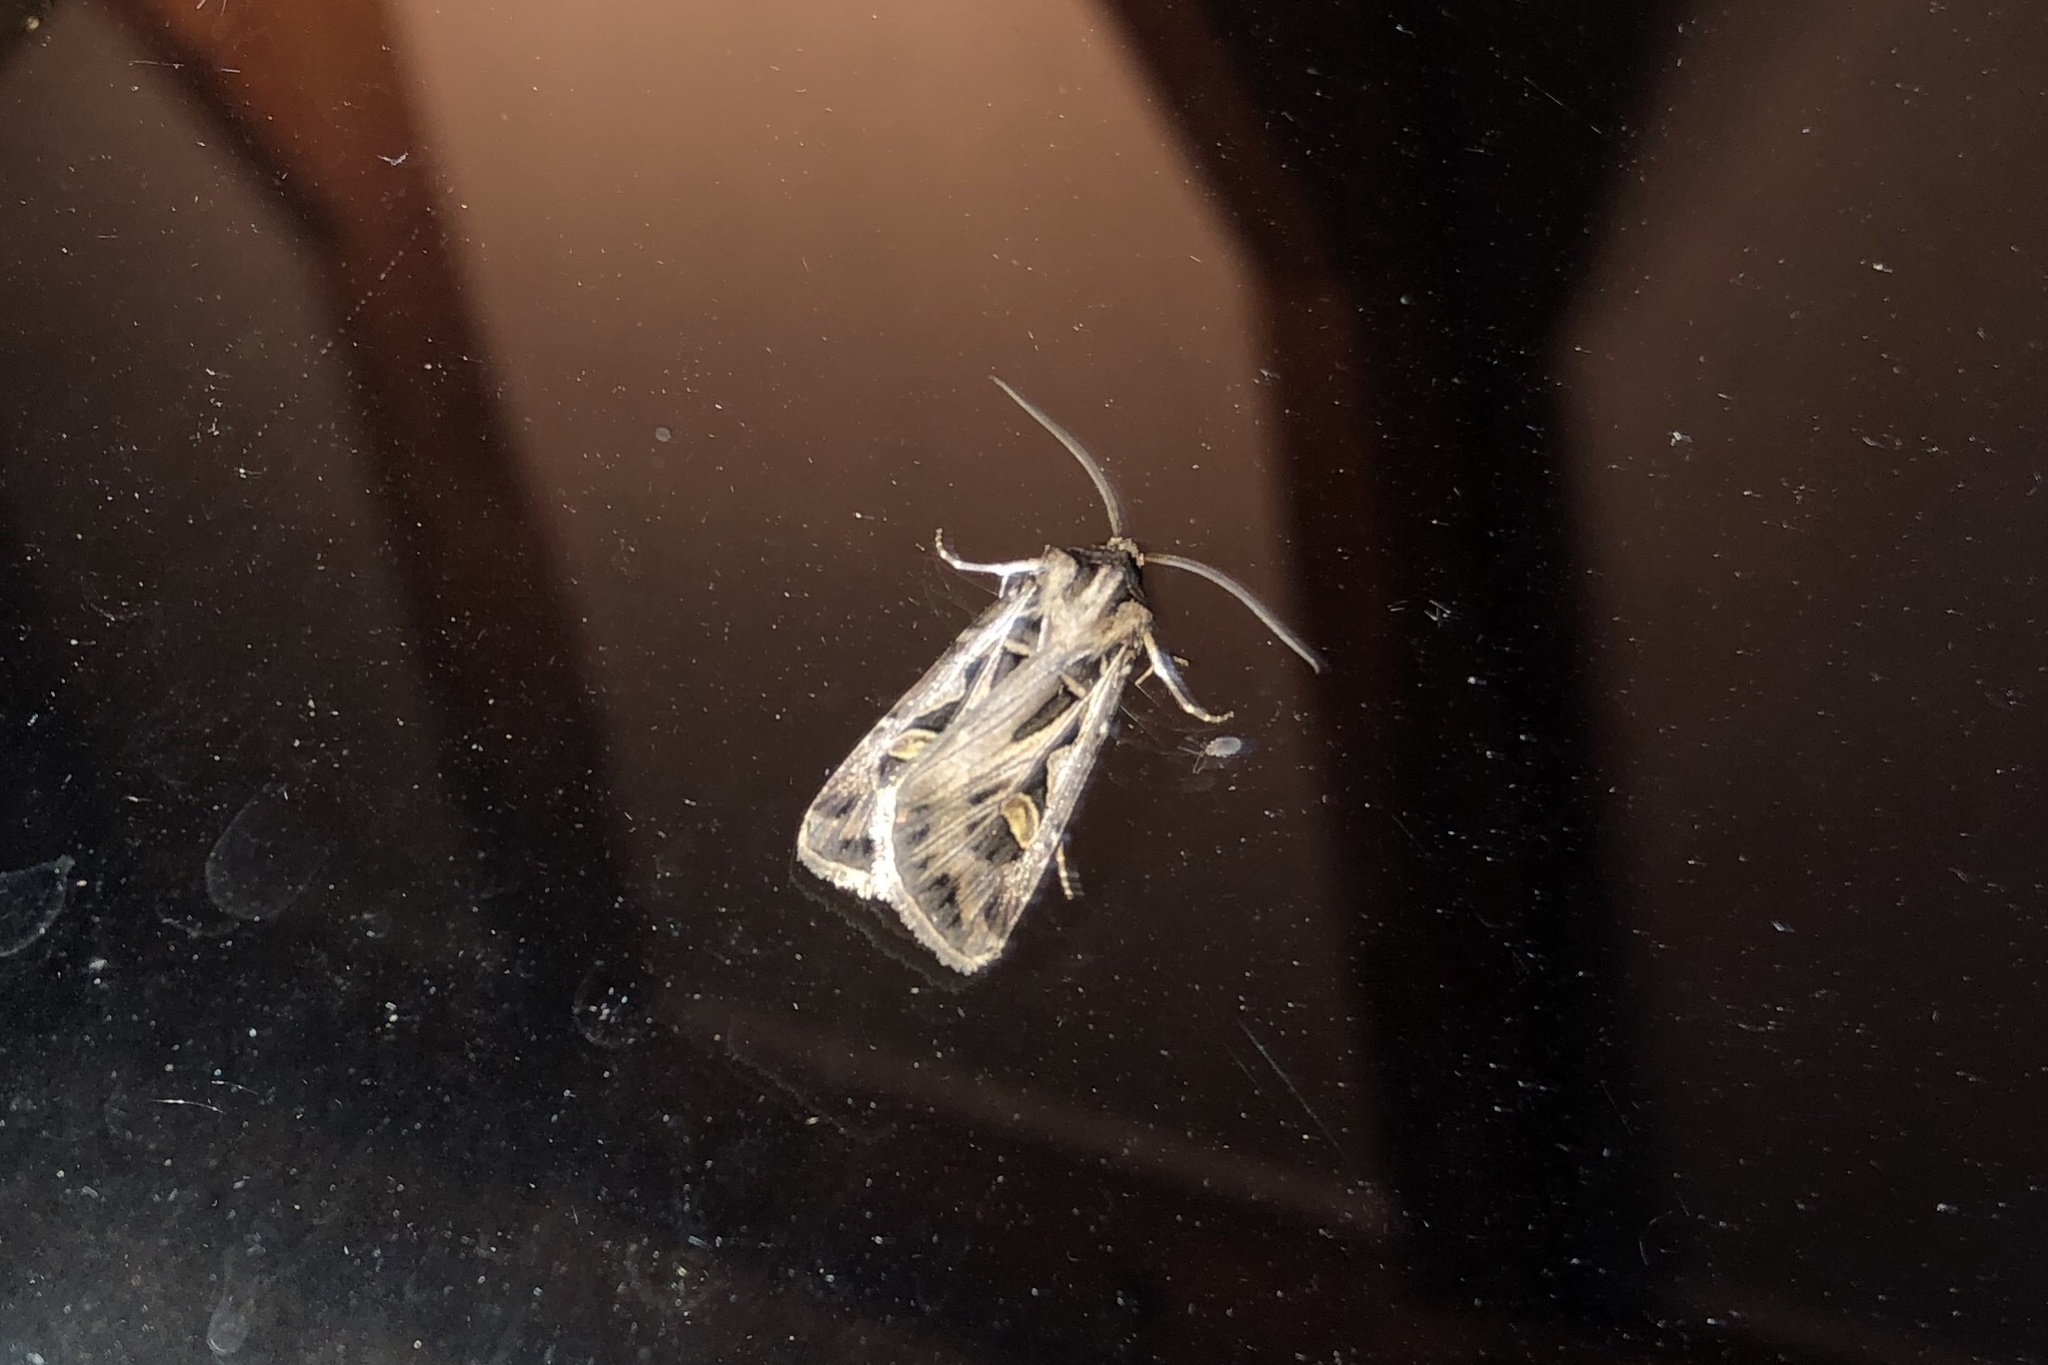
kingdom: Animalia
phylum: Arthropoda
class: Insecta
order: Lepidoptera
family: Noctuidae
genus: Feltia
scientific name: Feltia jaculifera
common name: Dingy cutworm moth
